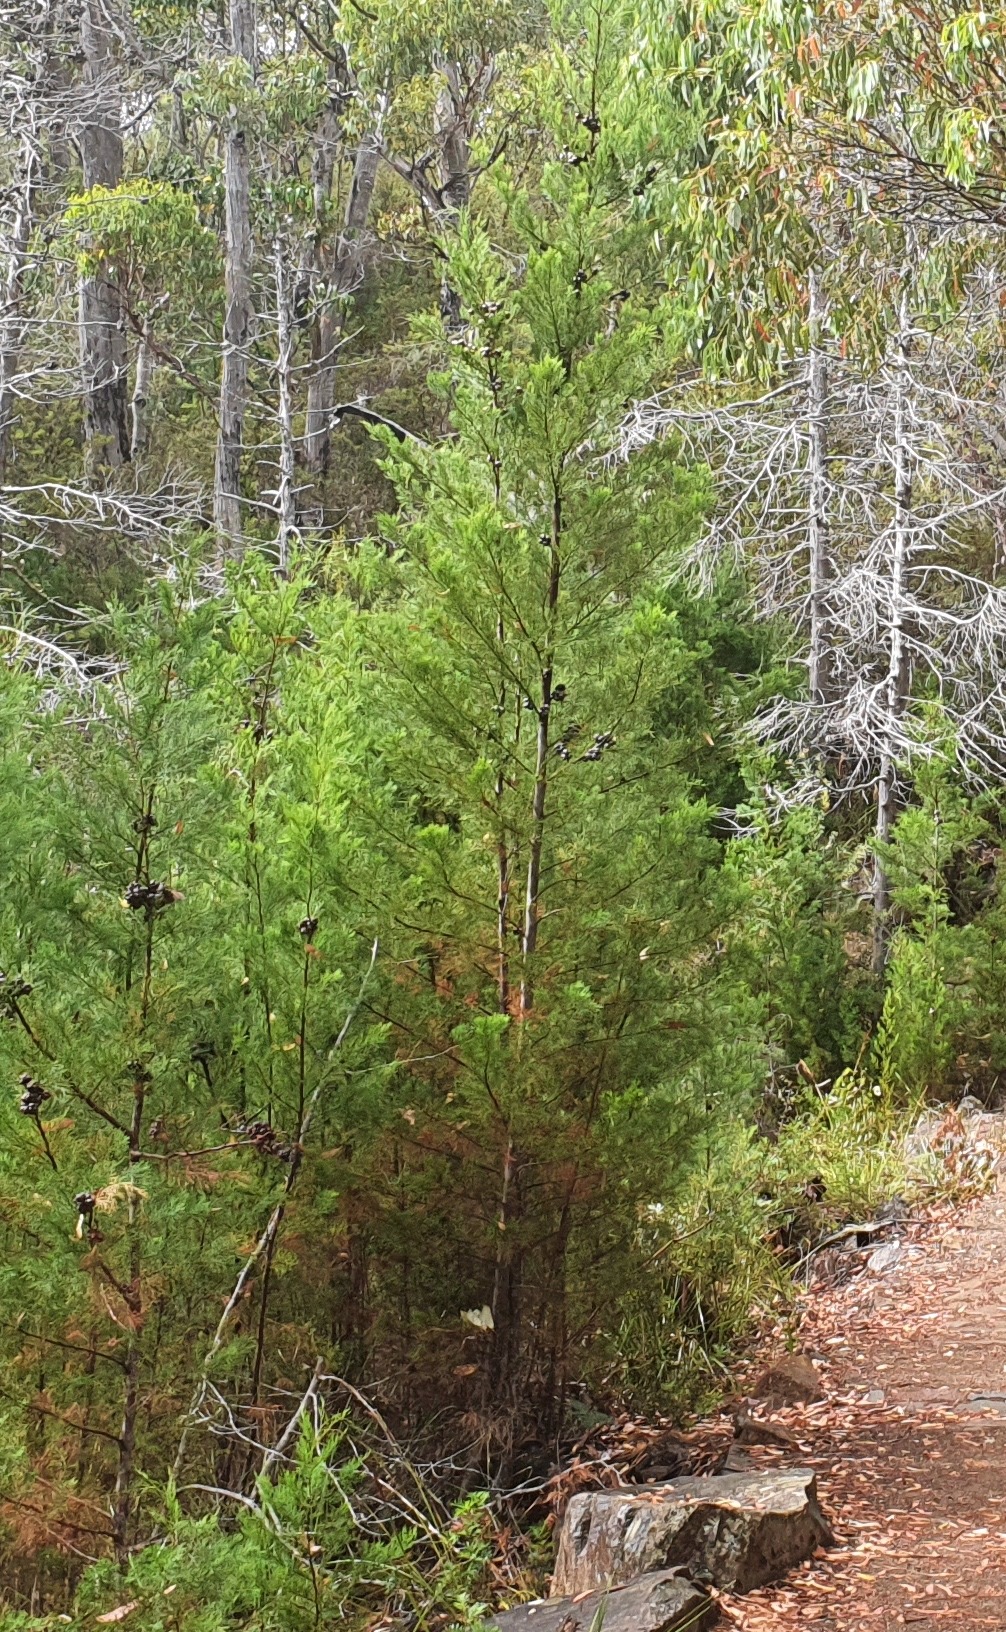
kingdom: Plantae
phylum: Tracheophyta
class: Pinopsida
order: Pinales
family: Cupressaceae
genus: Callitris
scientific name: Callitris rhomboidea
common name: Illawara mountain pine
